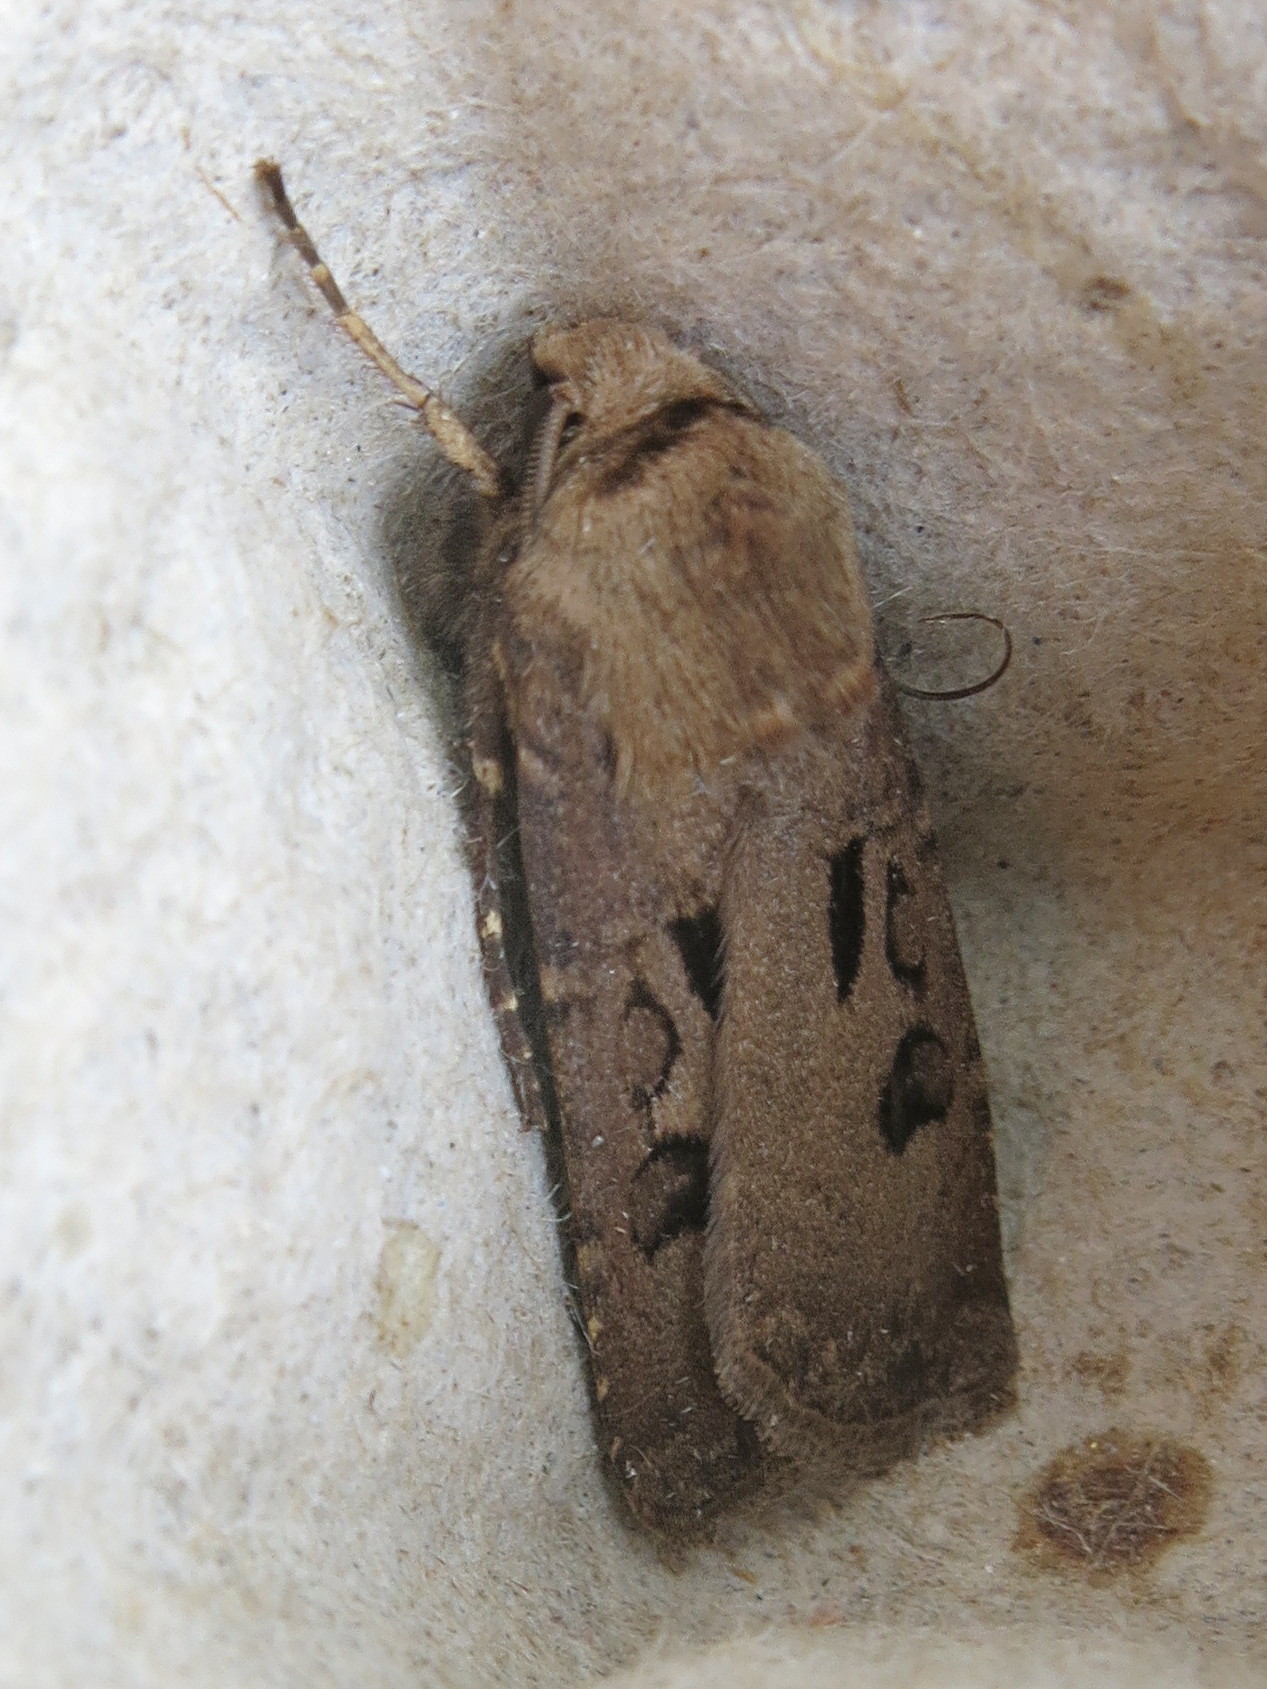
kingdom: Animalia
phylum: Arthropoda
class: Insecta
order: Lepidoptera
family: Noctuidae
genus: Agrotis
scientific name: Agrotis exclamationis
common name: Heart and dart
